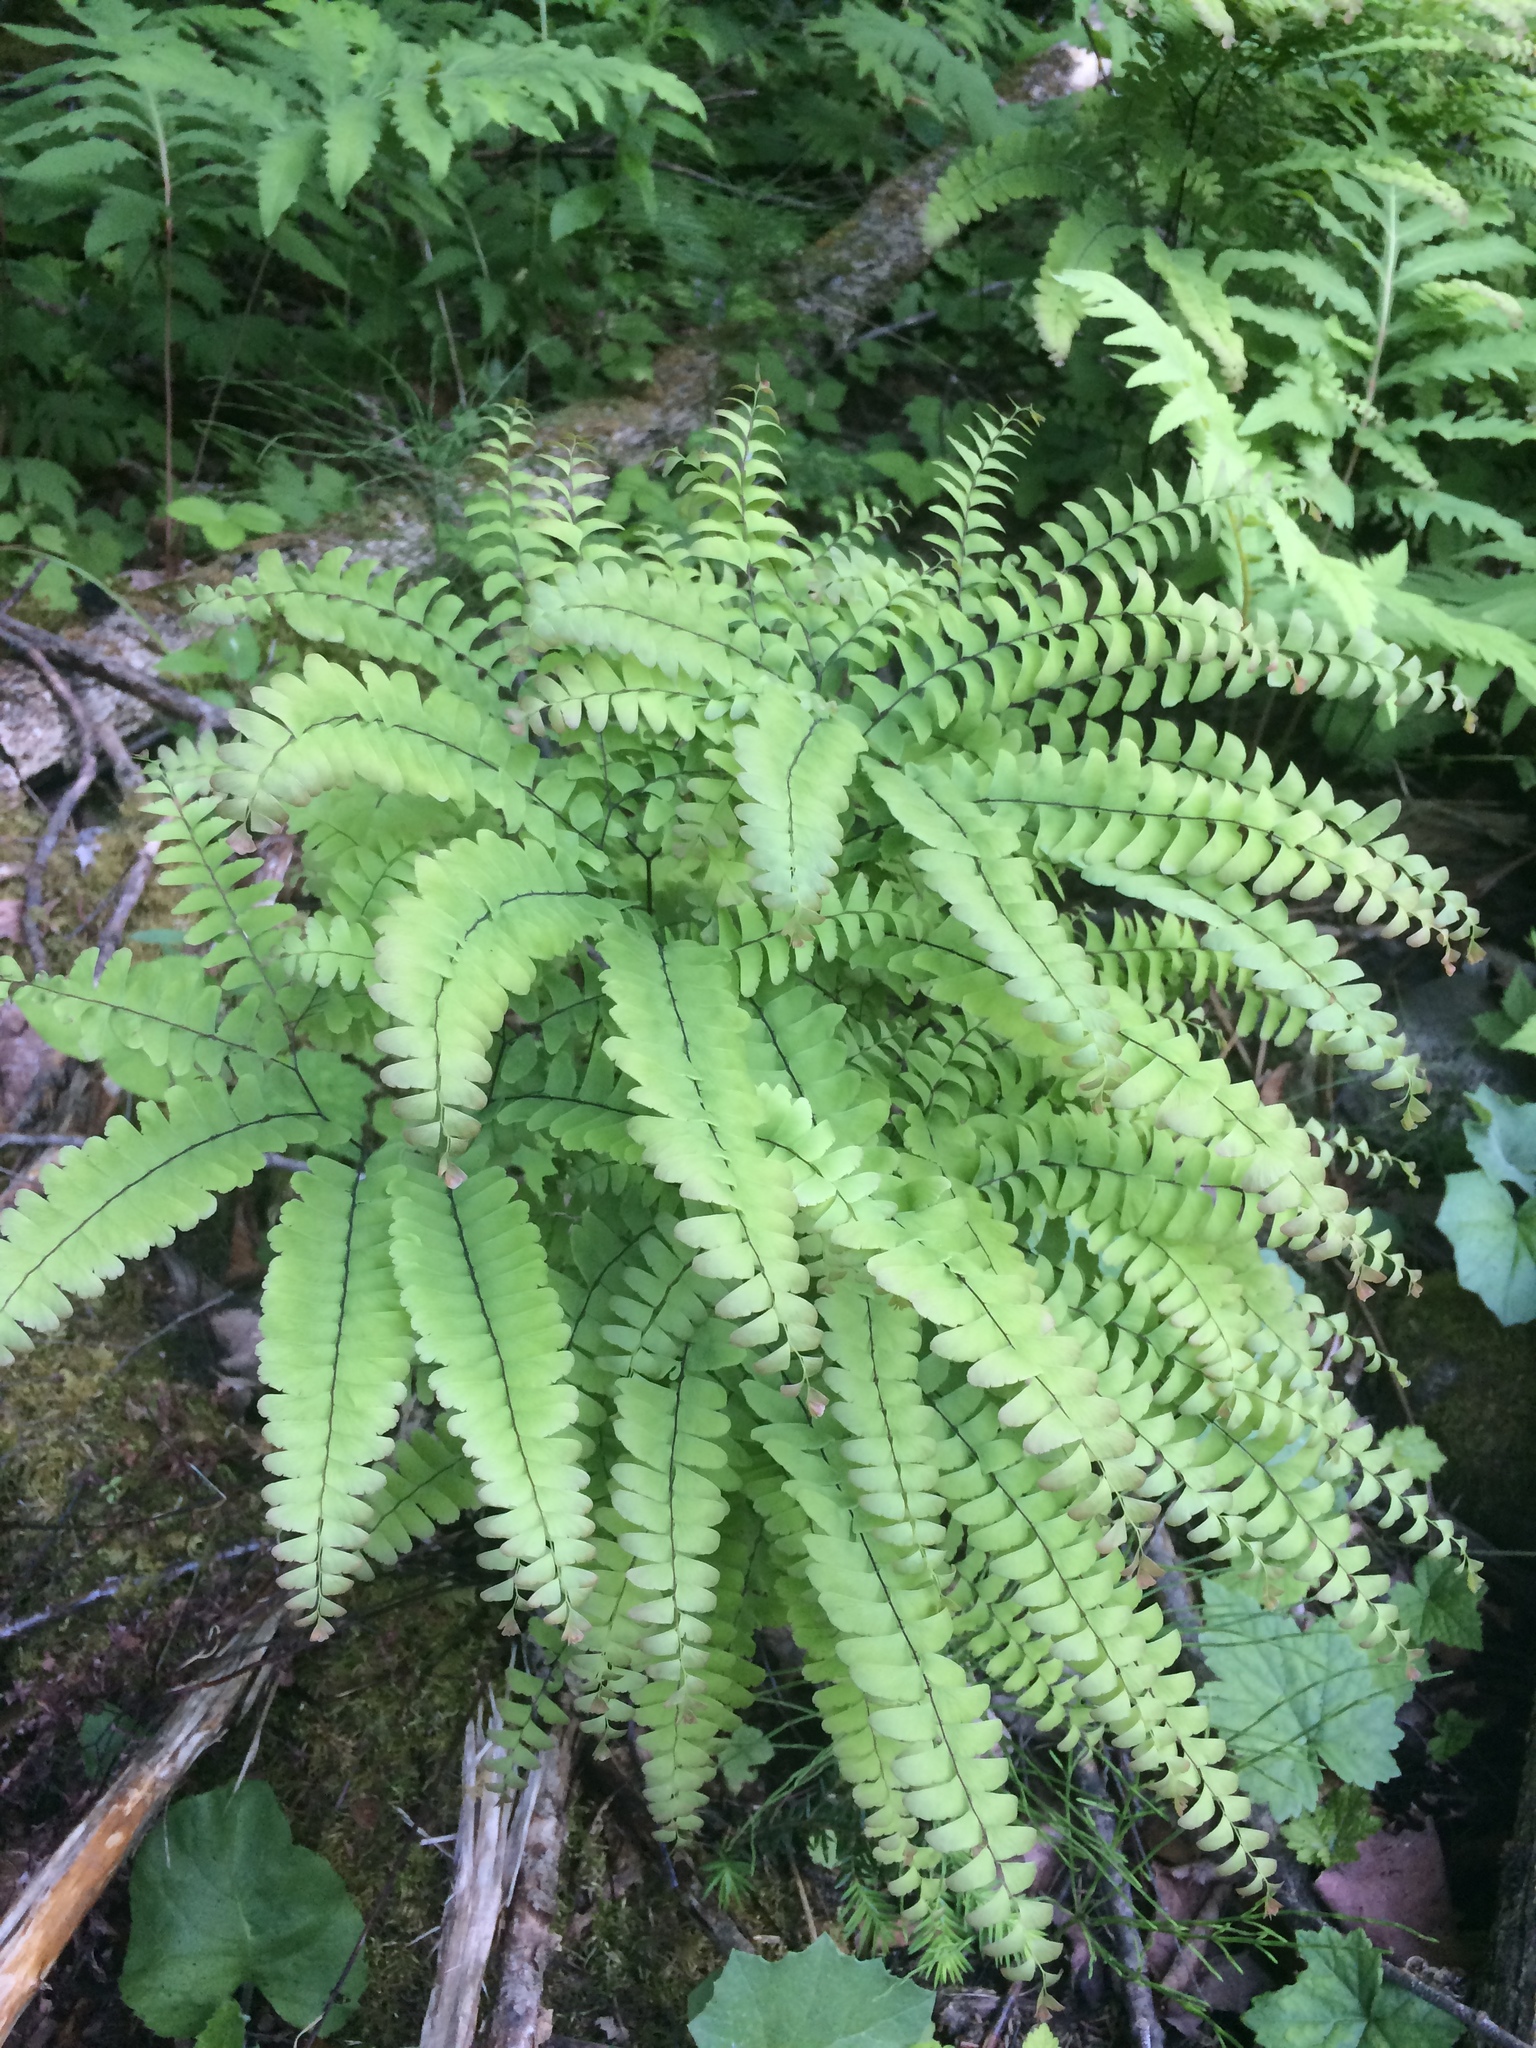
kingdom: Plantae
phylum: Tracheophyta
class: Polypodiopsida
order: Polypodiales
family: Pteridaceae
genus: Adiantum
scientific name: Adiantum pedatum
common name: Five-finger fern
